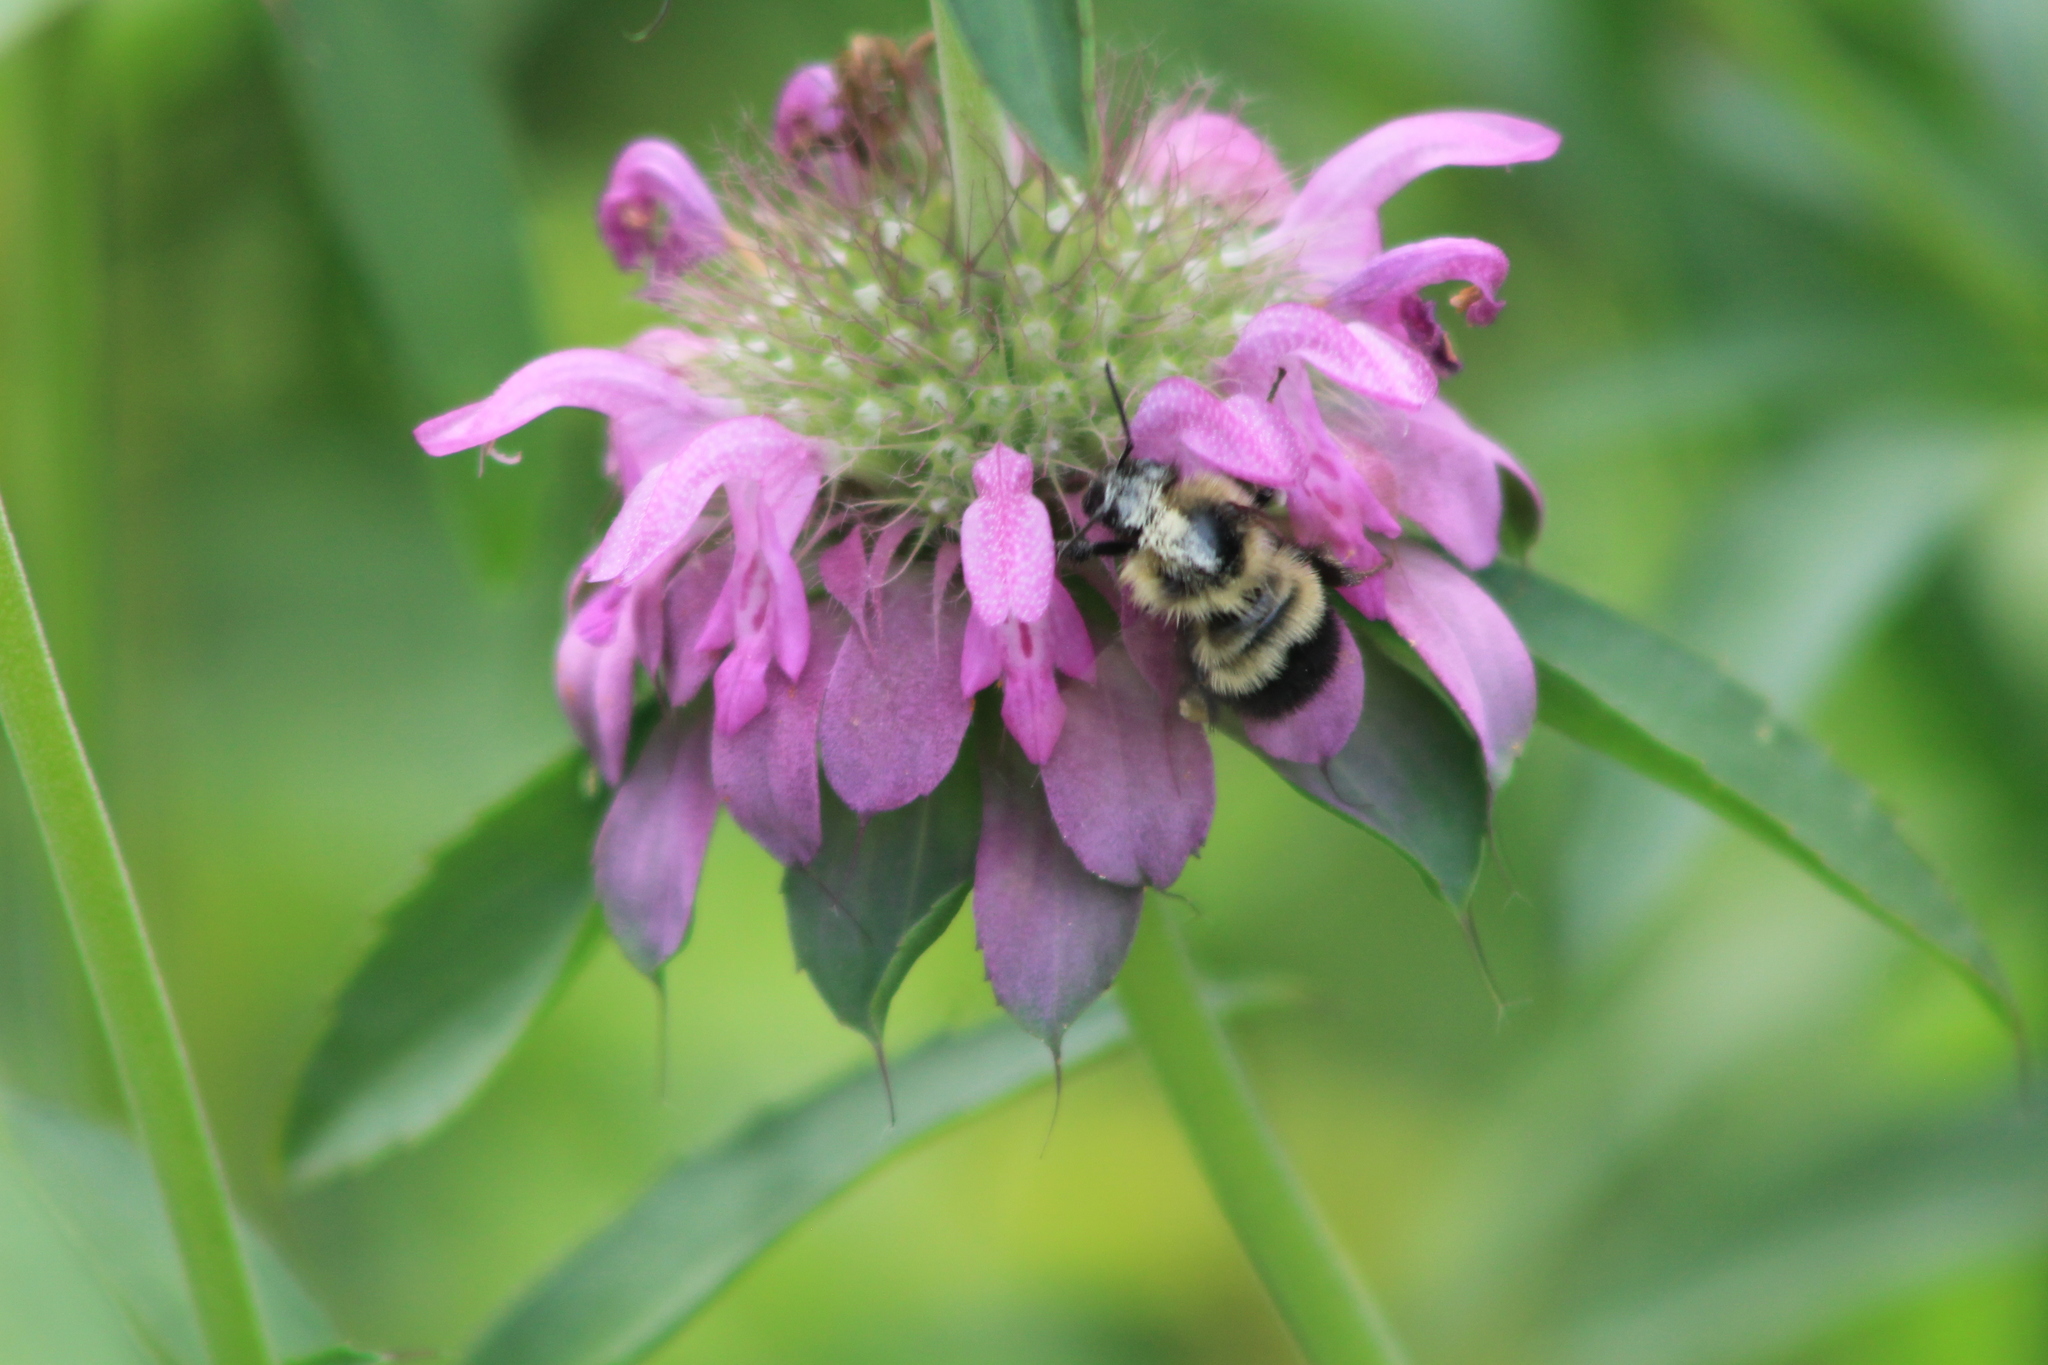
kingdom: Animalia
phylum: Arthropoda
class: Insecta
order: Hymenoptera
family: Apidae
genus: Bombus
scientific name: Bombus vagans
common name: Half-black bumble bee
